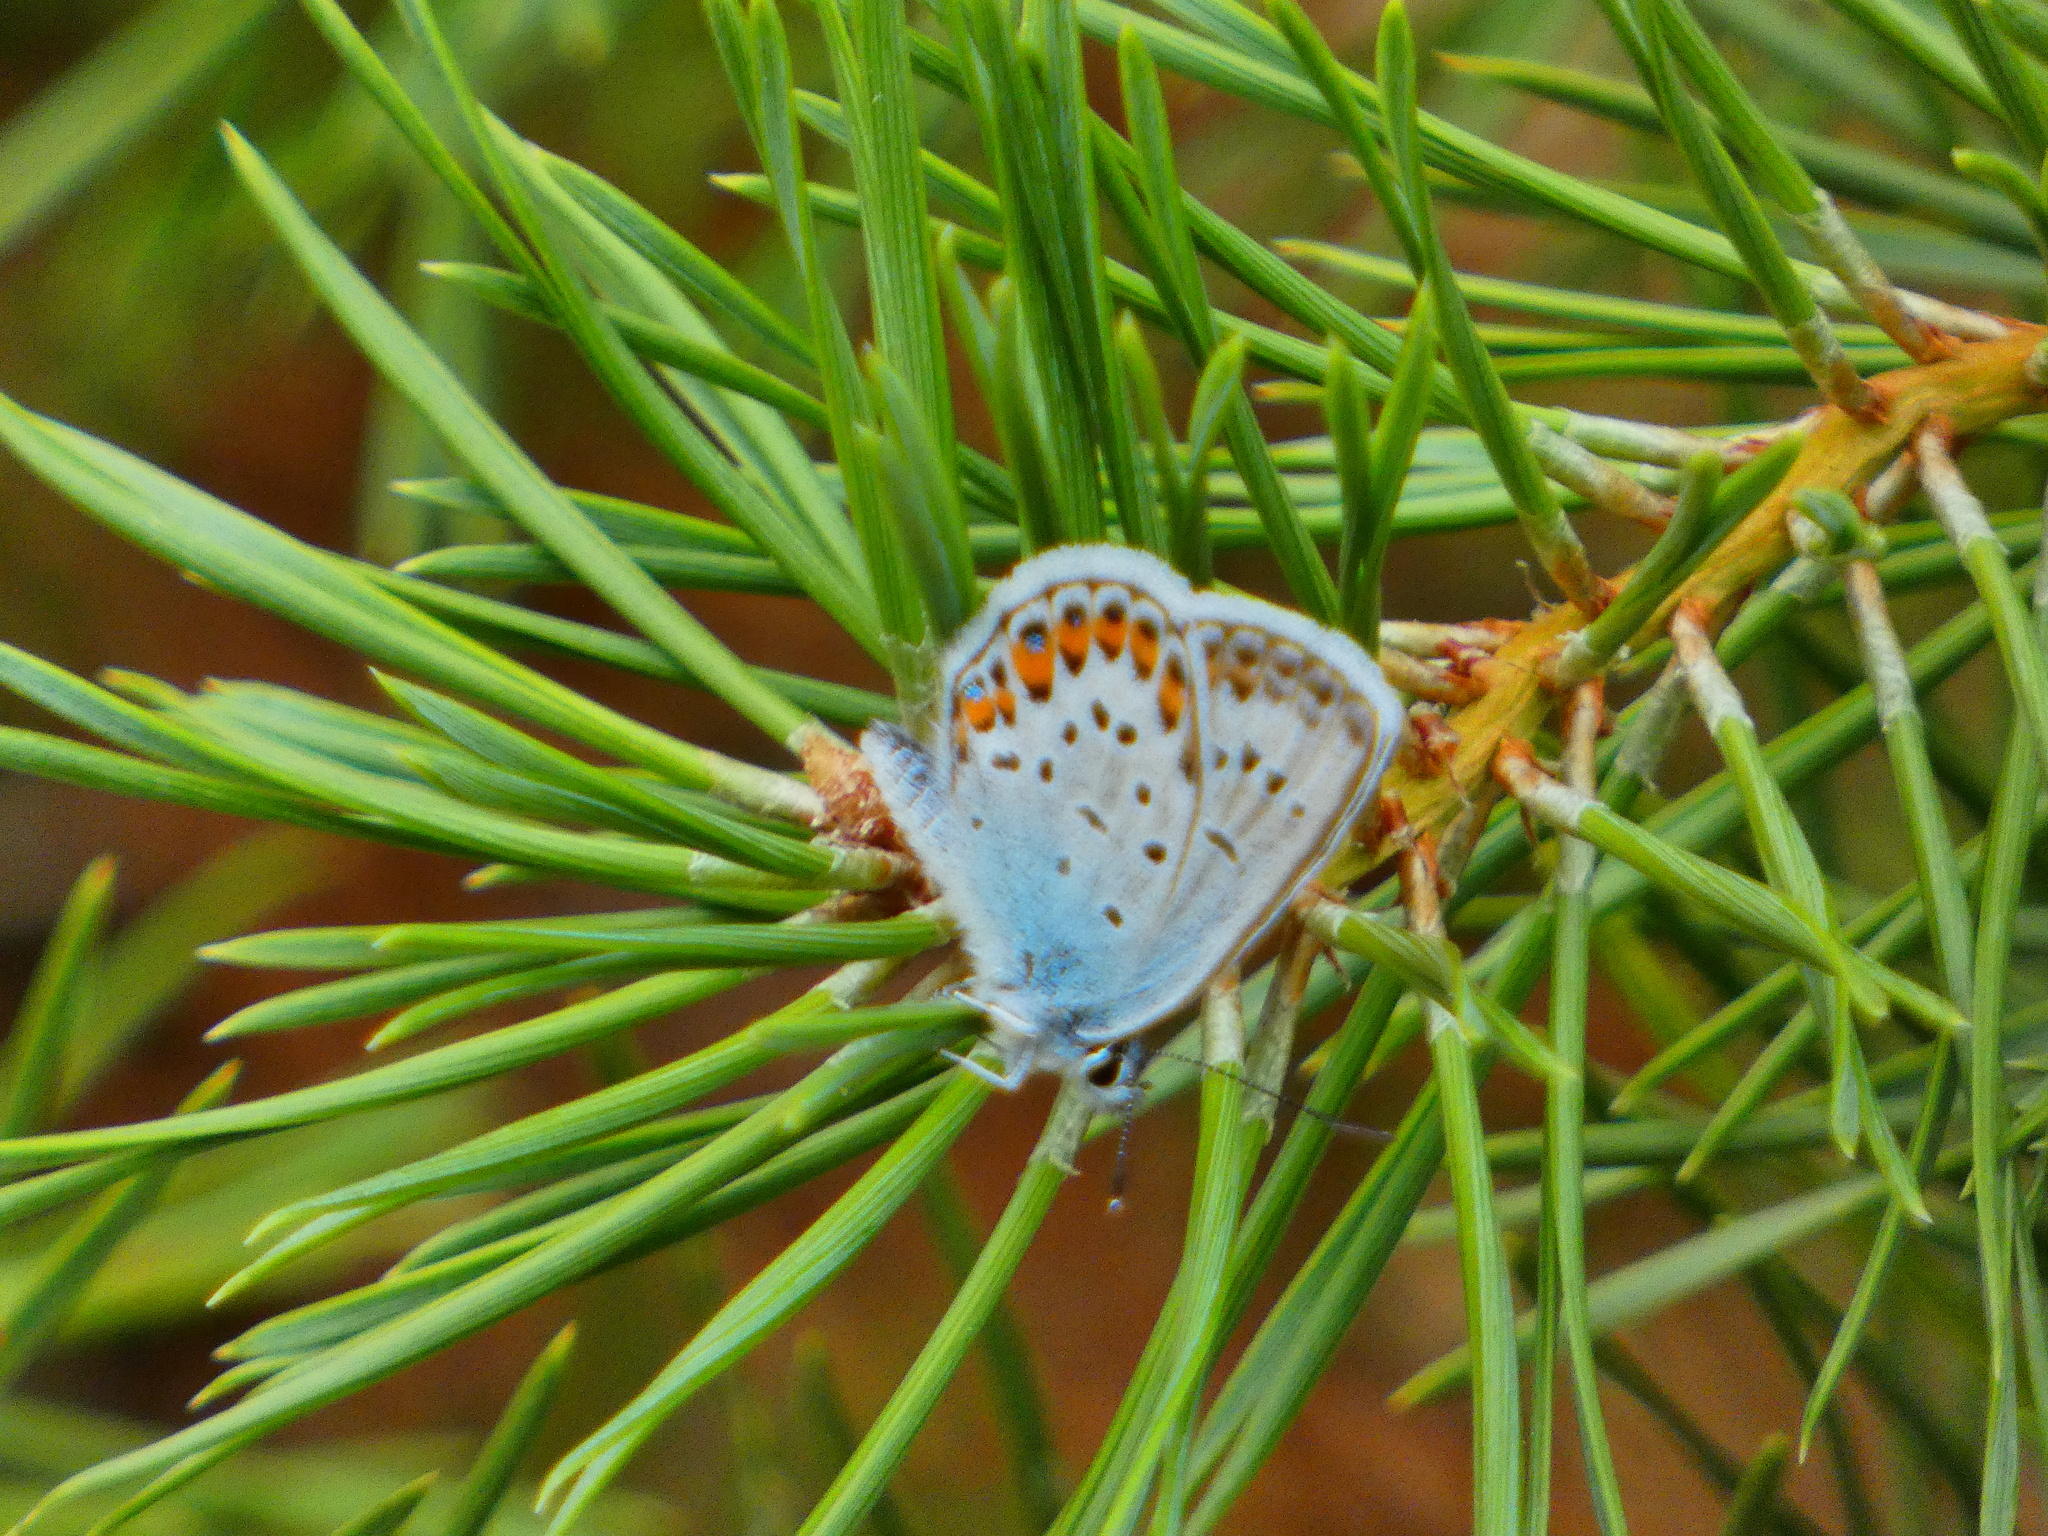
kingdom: Animalia
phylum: Arthropoda
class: Insecta
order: Lepidoptera
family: Lycaenidae
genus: Plebejus
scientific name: Plebejus argus
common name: Silver-studded blue
